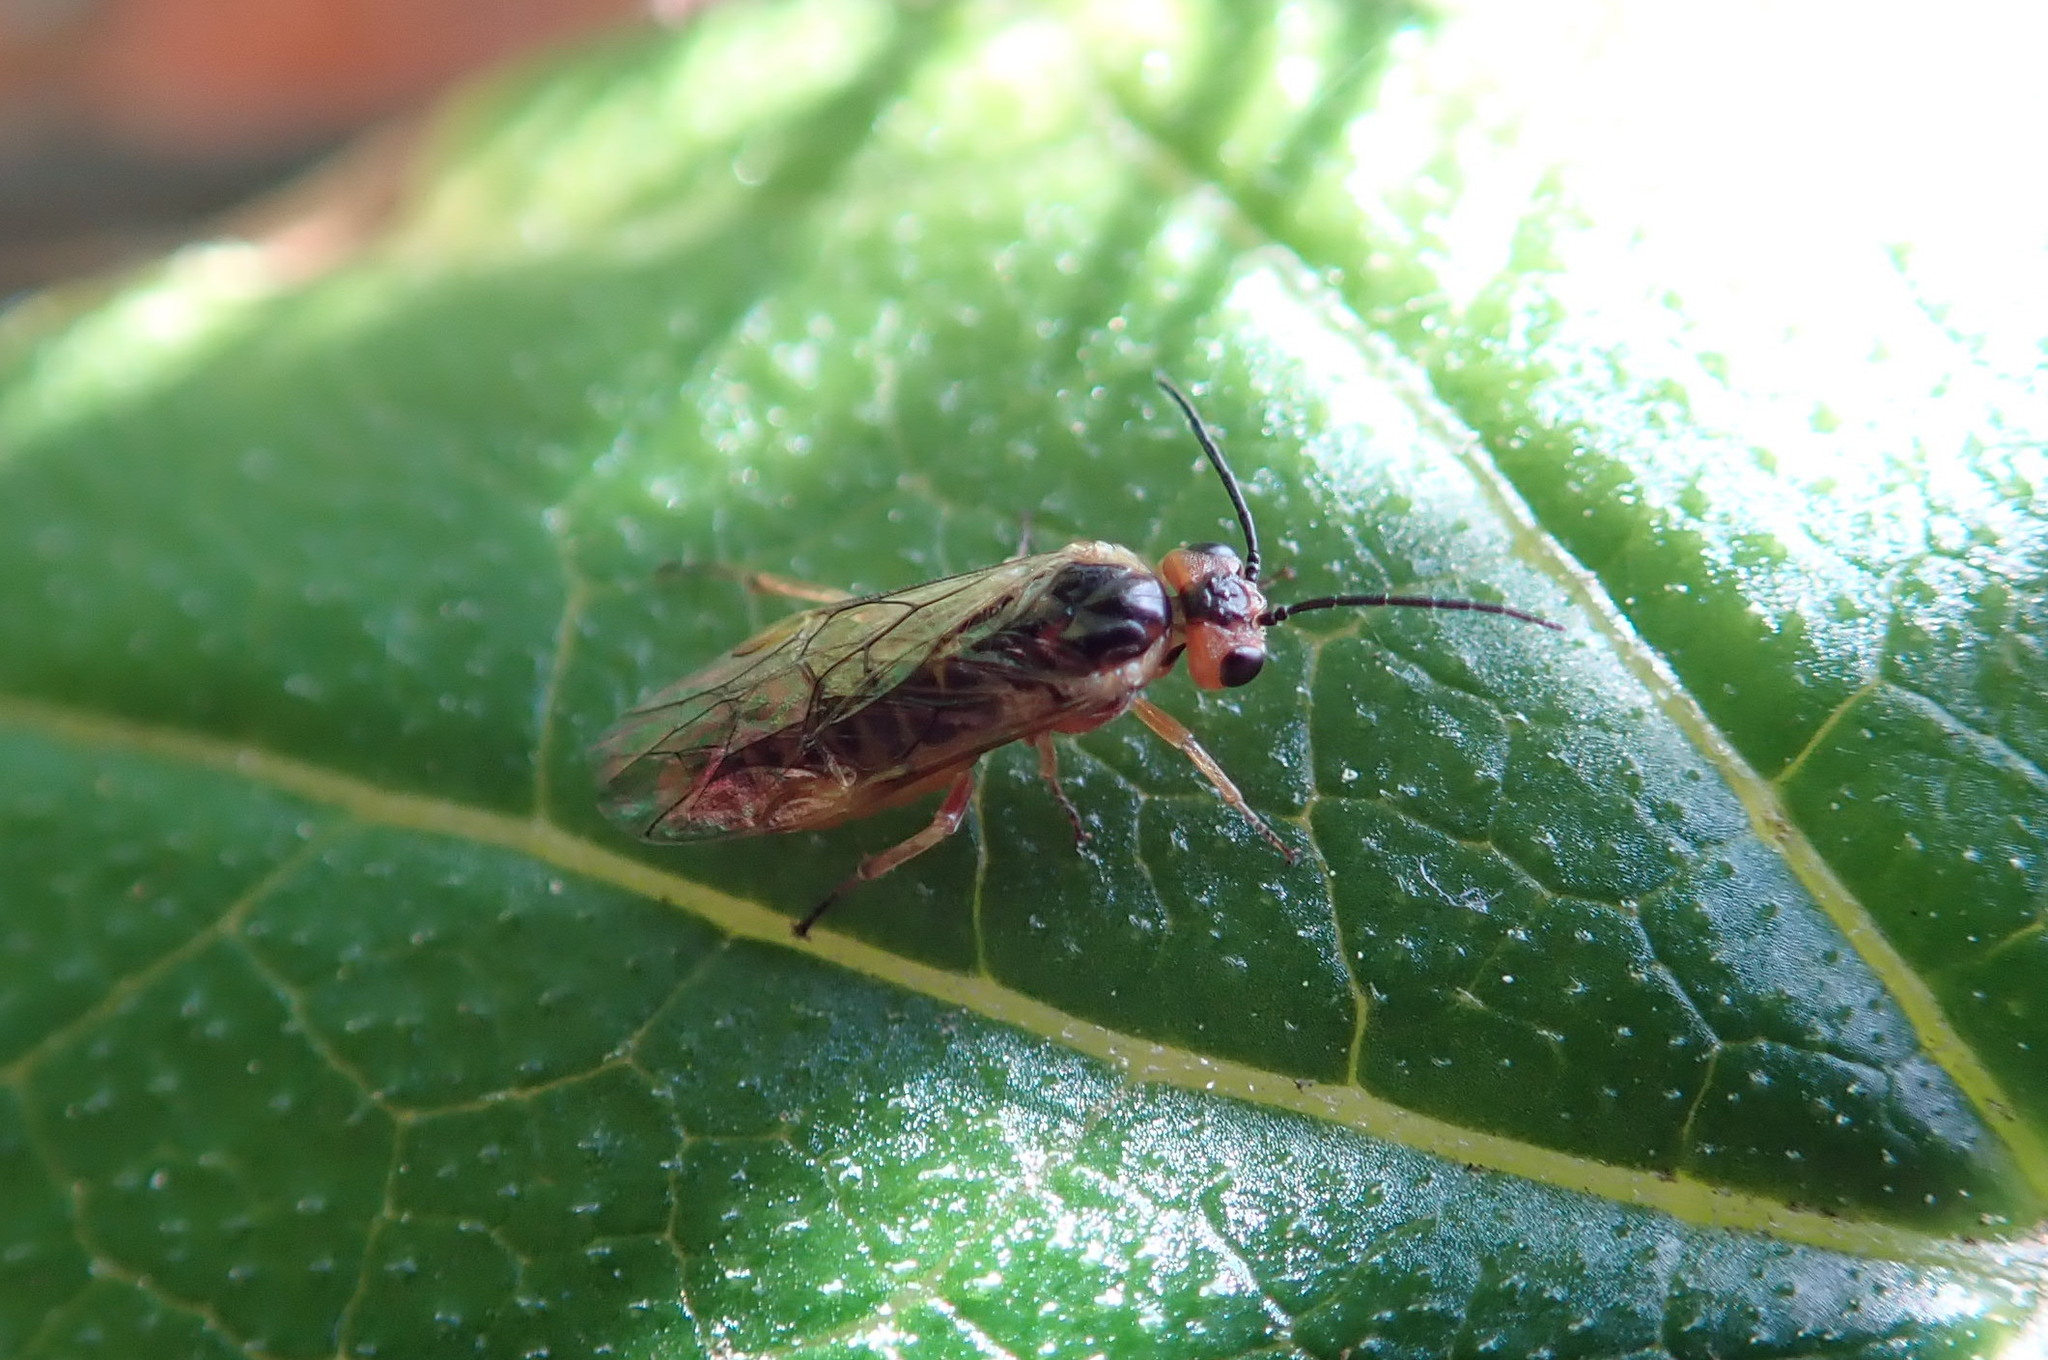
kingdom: Animalia
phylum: Arthropoda
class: Insecta
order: Hymenoptera
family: Tenthredinidae
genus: Euura
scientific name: Euura
